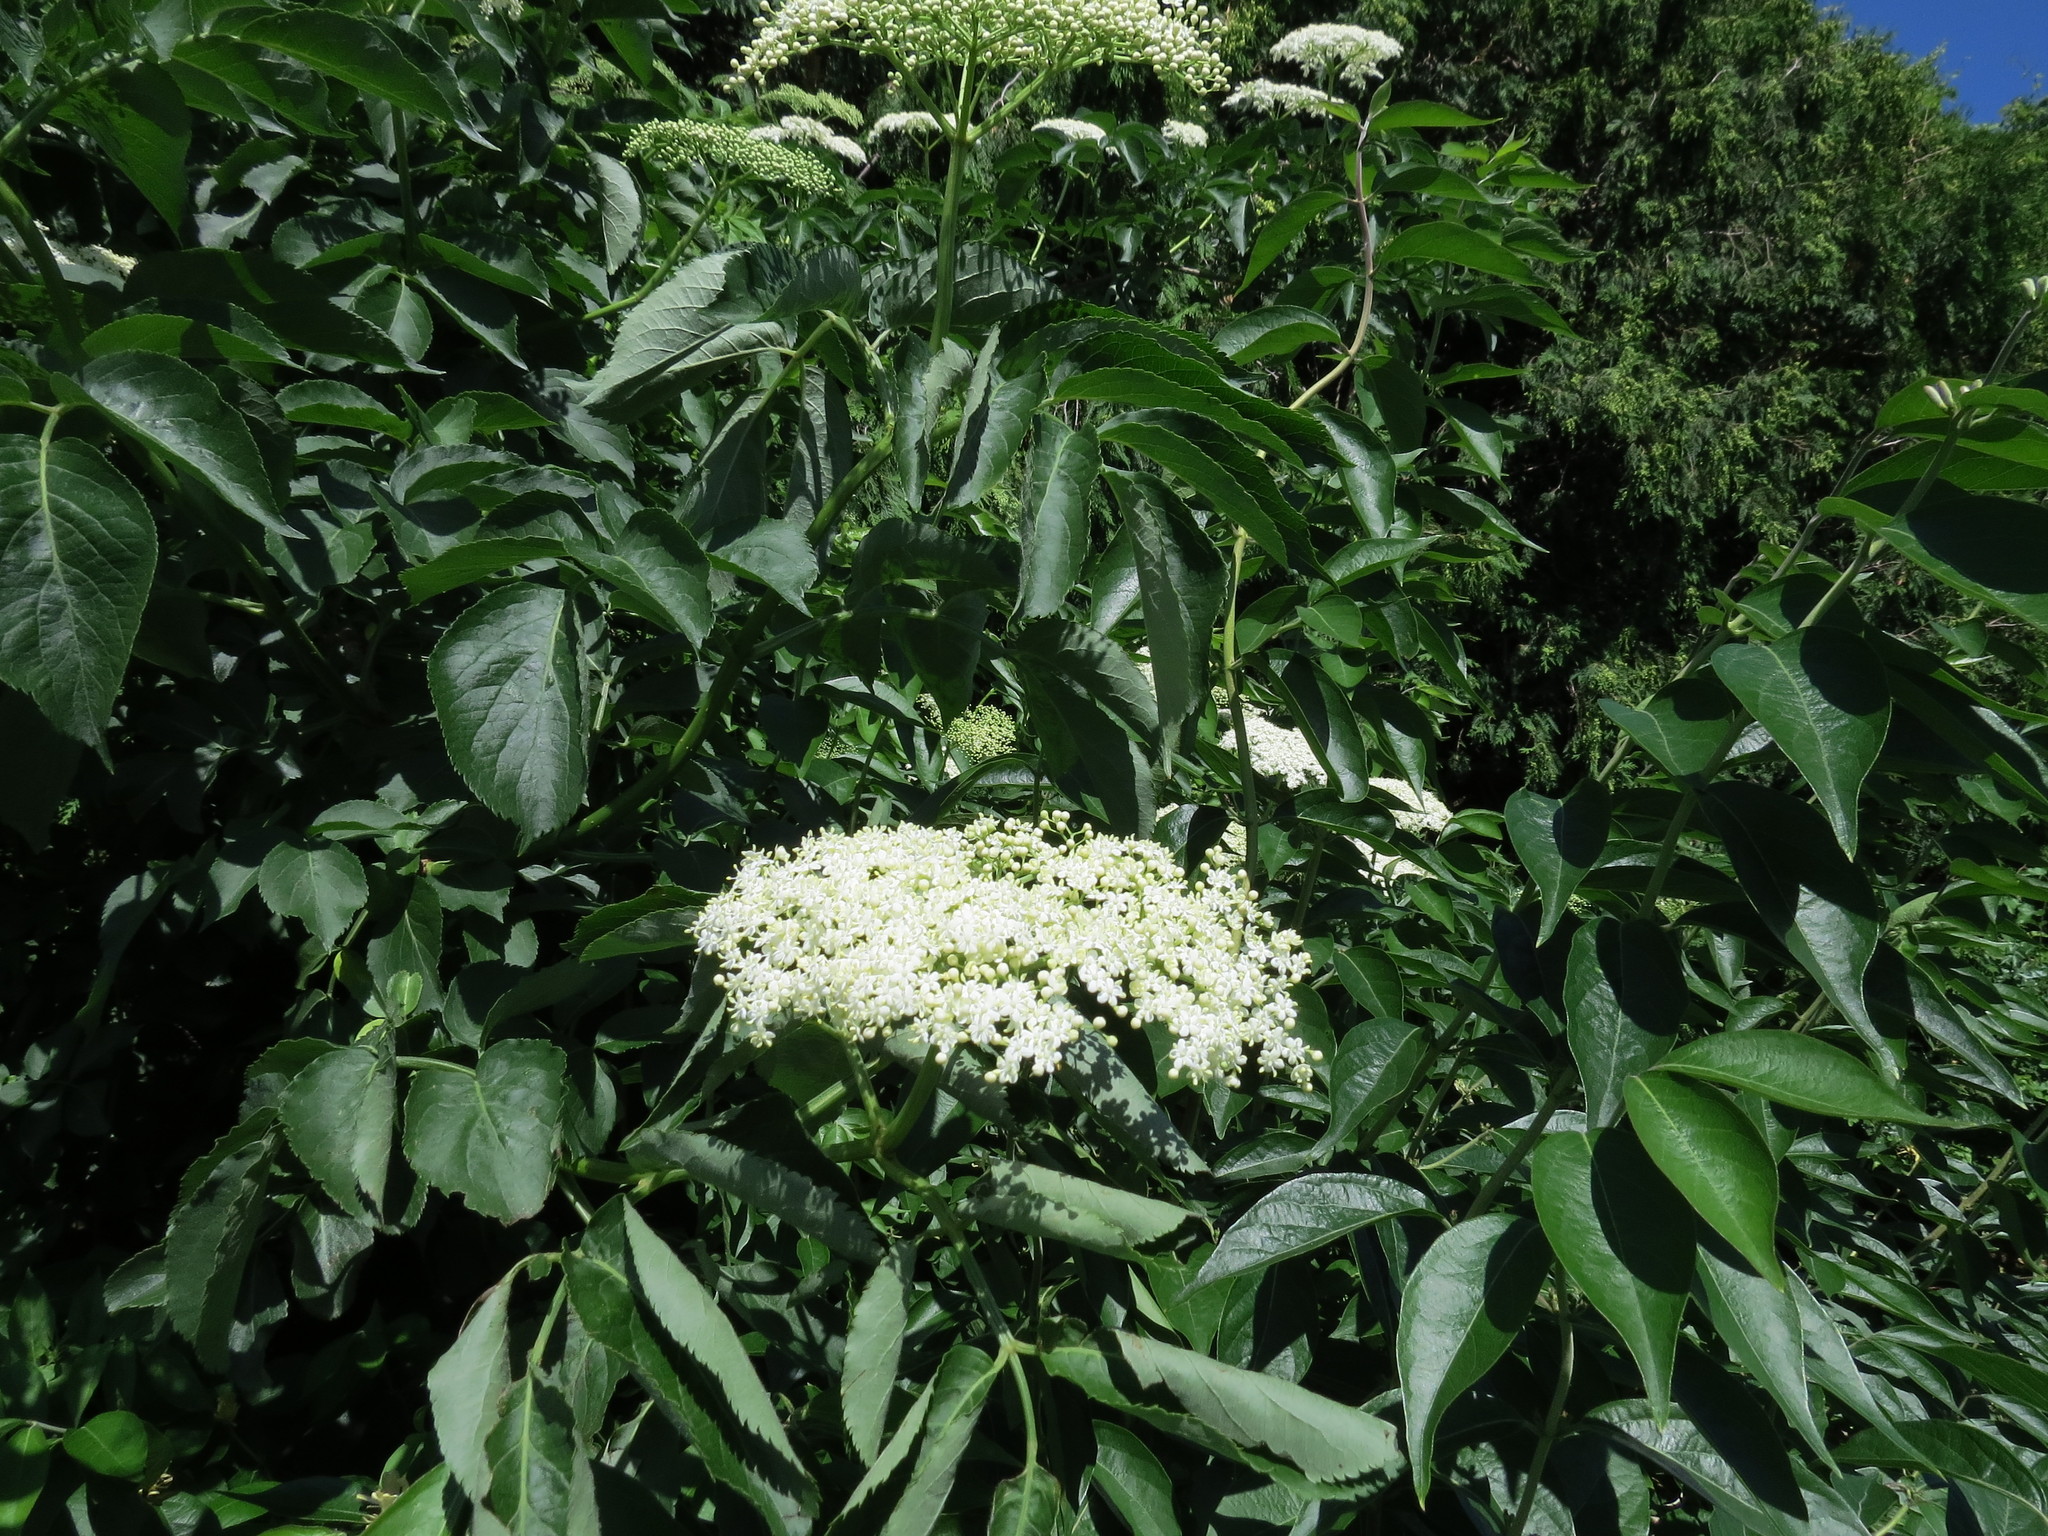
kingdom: Plantae
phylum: Tracheophyta
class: Magnoliopsida
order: Dipsacales
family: Viburnaceae
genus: Sambucus
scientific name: Sambucus canadensis
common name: American elder
